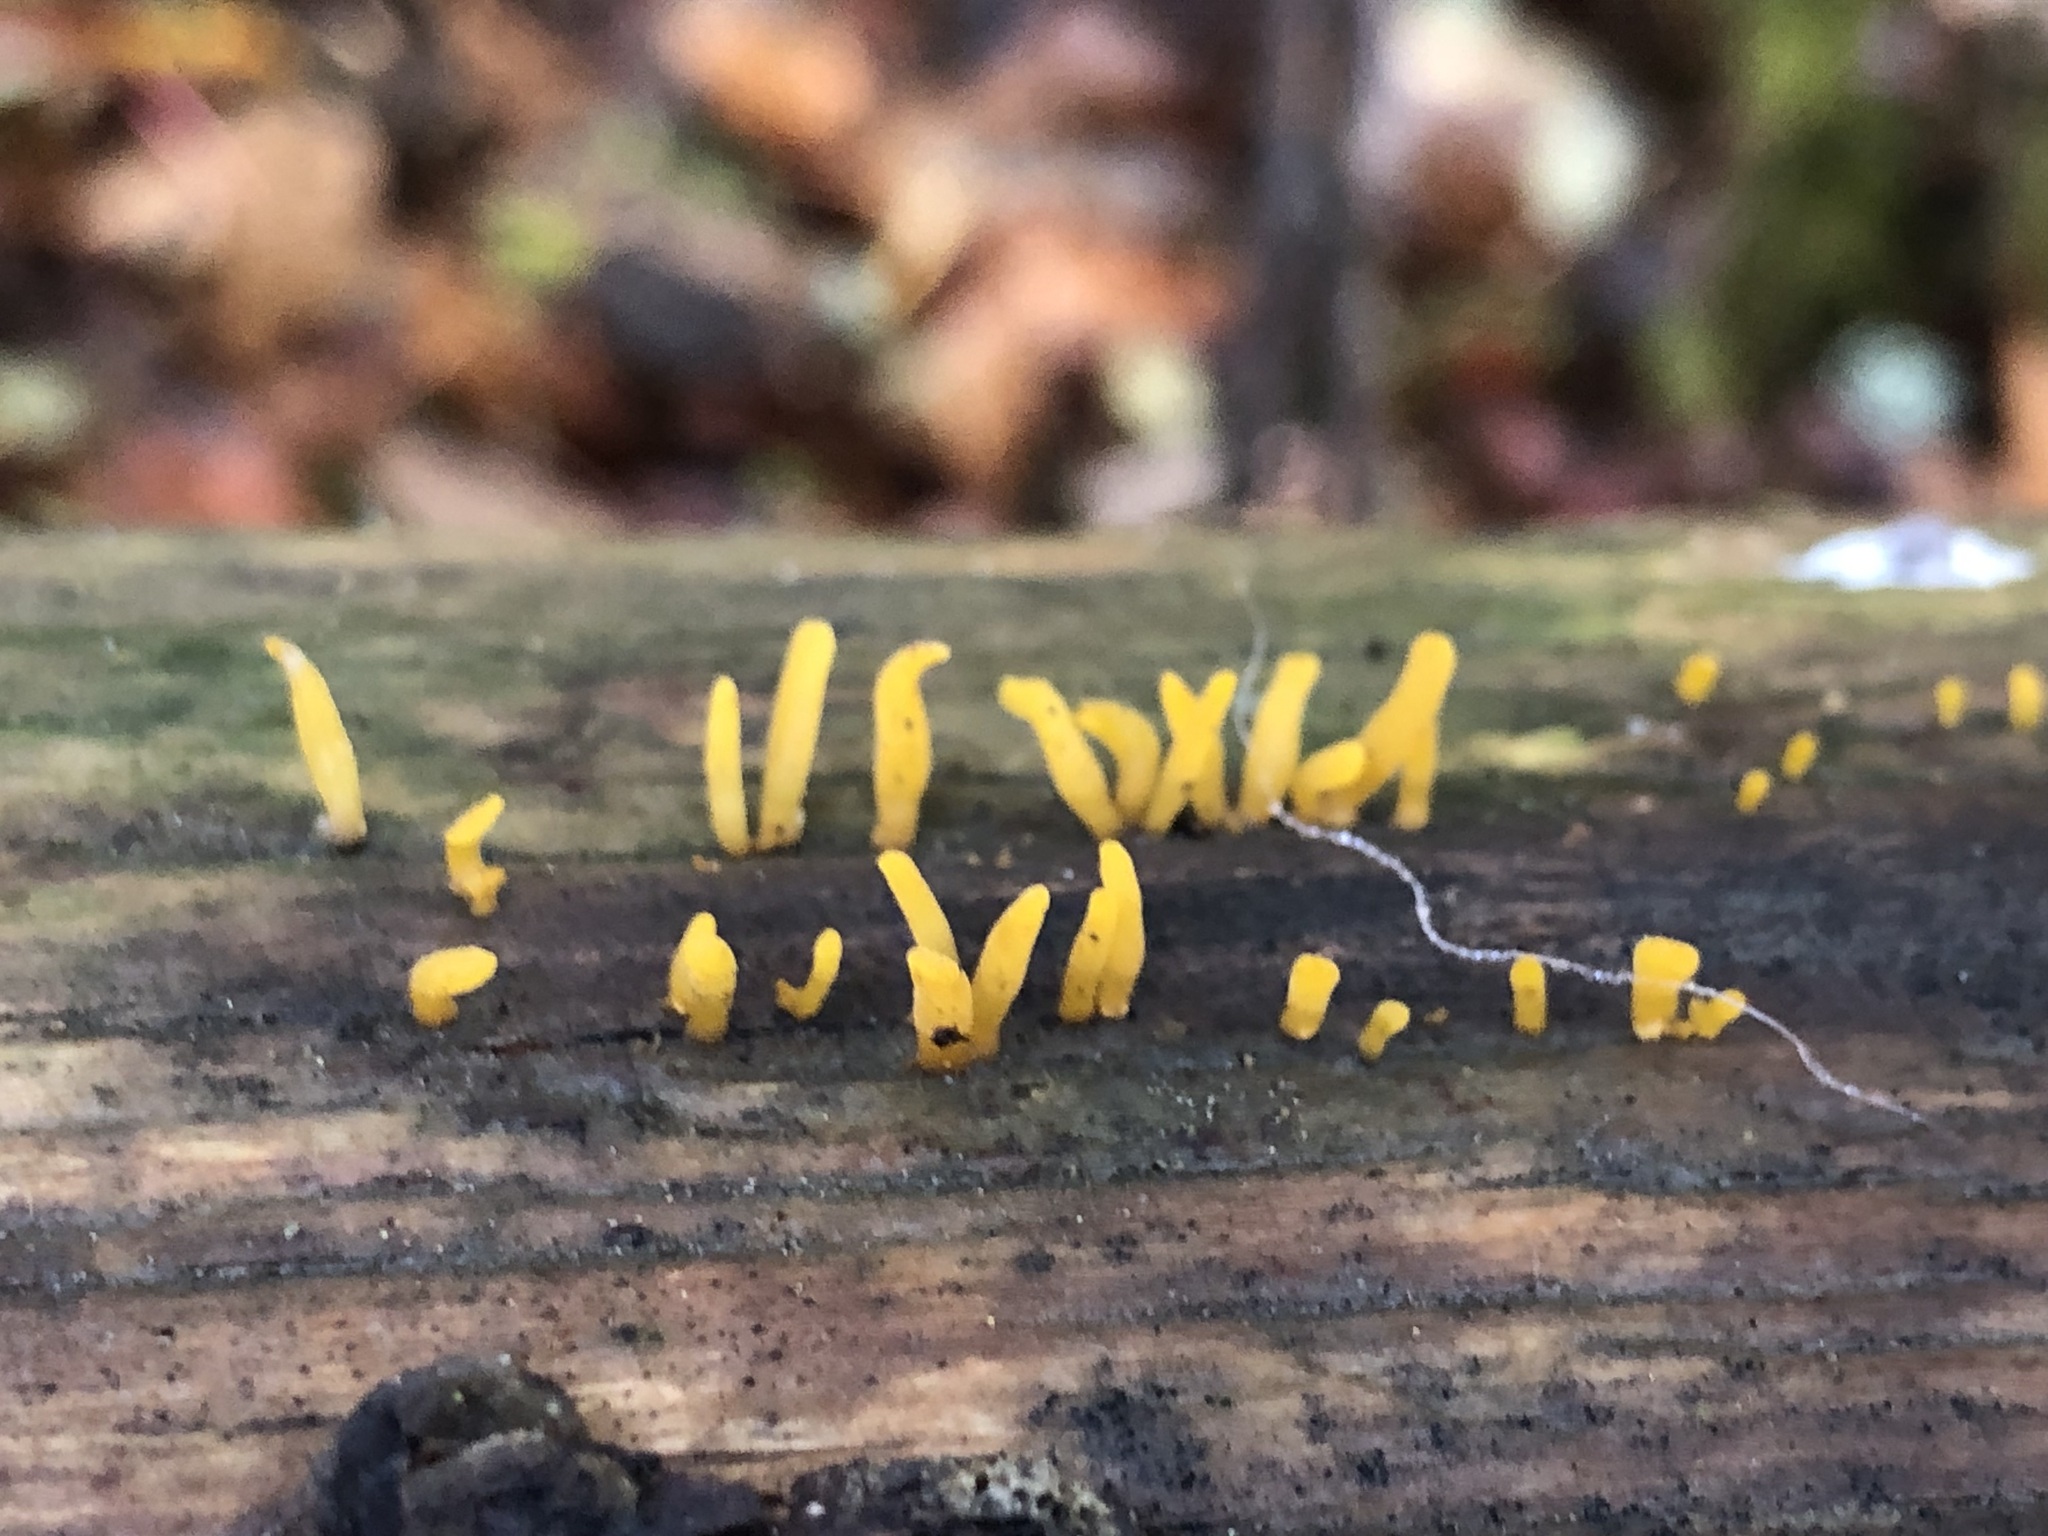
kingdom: Fungi
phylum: Basidiomycota
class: Dacrymycetes
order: Dacrymycetales
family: Dacrymycetaceae
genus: Calocera
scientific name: Calocera cornea
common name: Small stagshorn
